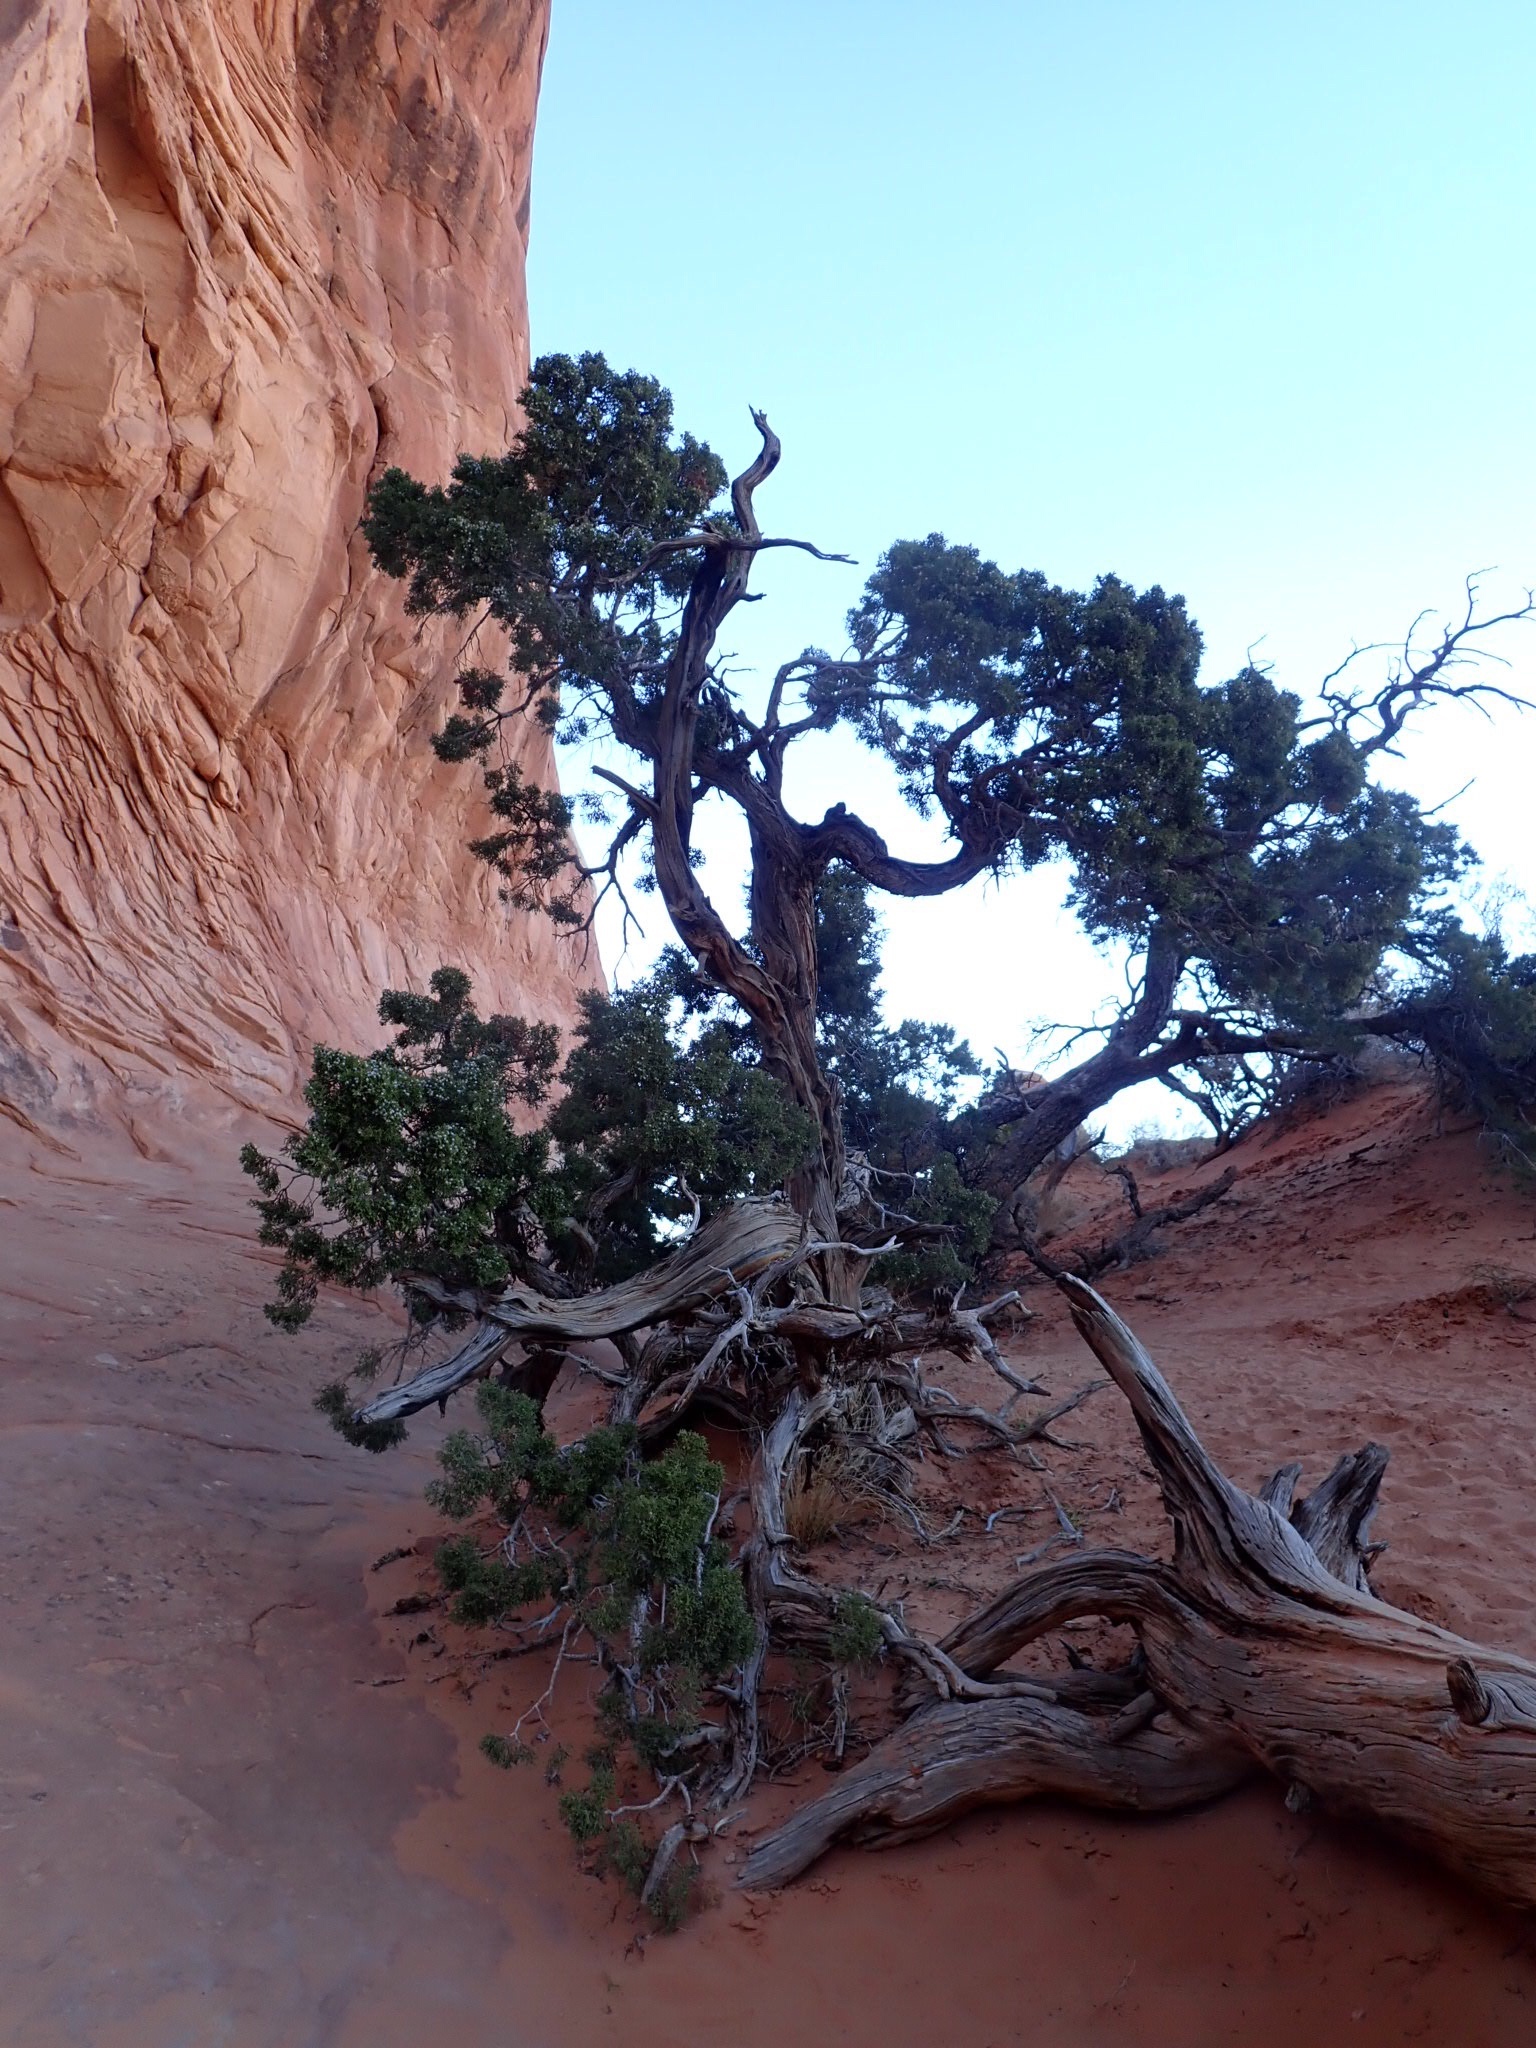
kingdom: Plantae
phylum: Tracheophyta
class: Pinopsida
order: Pinales
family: Cupressaceae
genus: Juniperus
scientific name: Juniperus osteosperma
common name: Utah juniper
